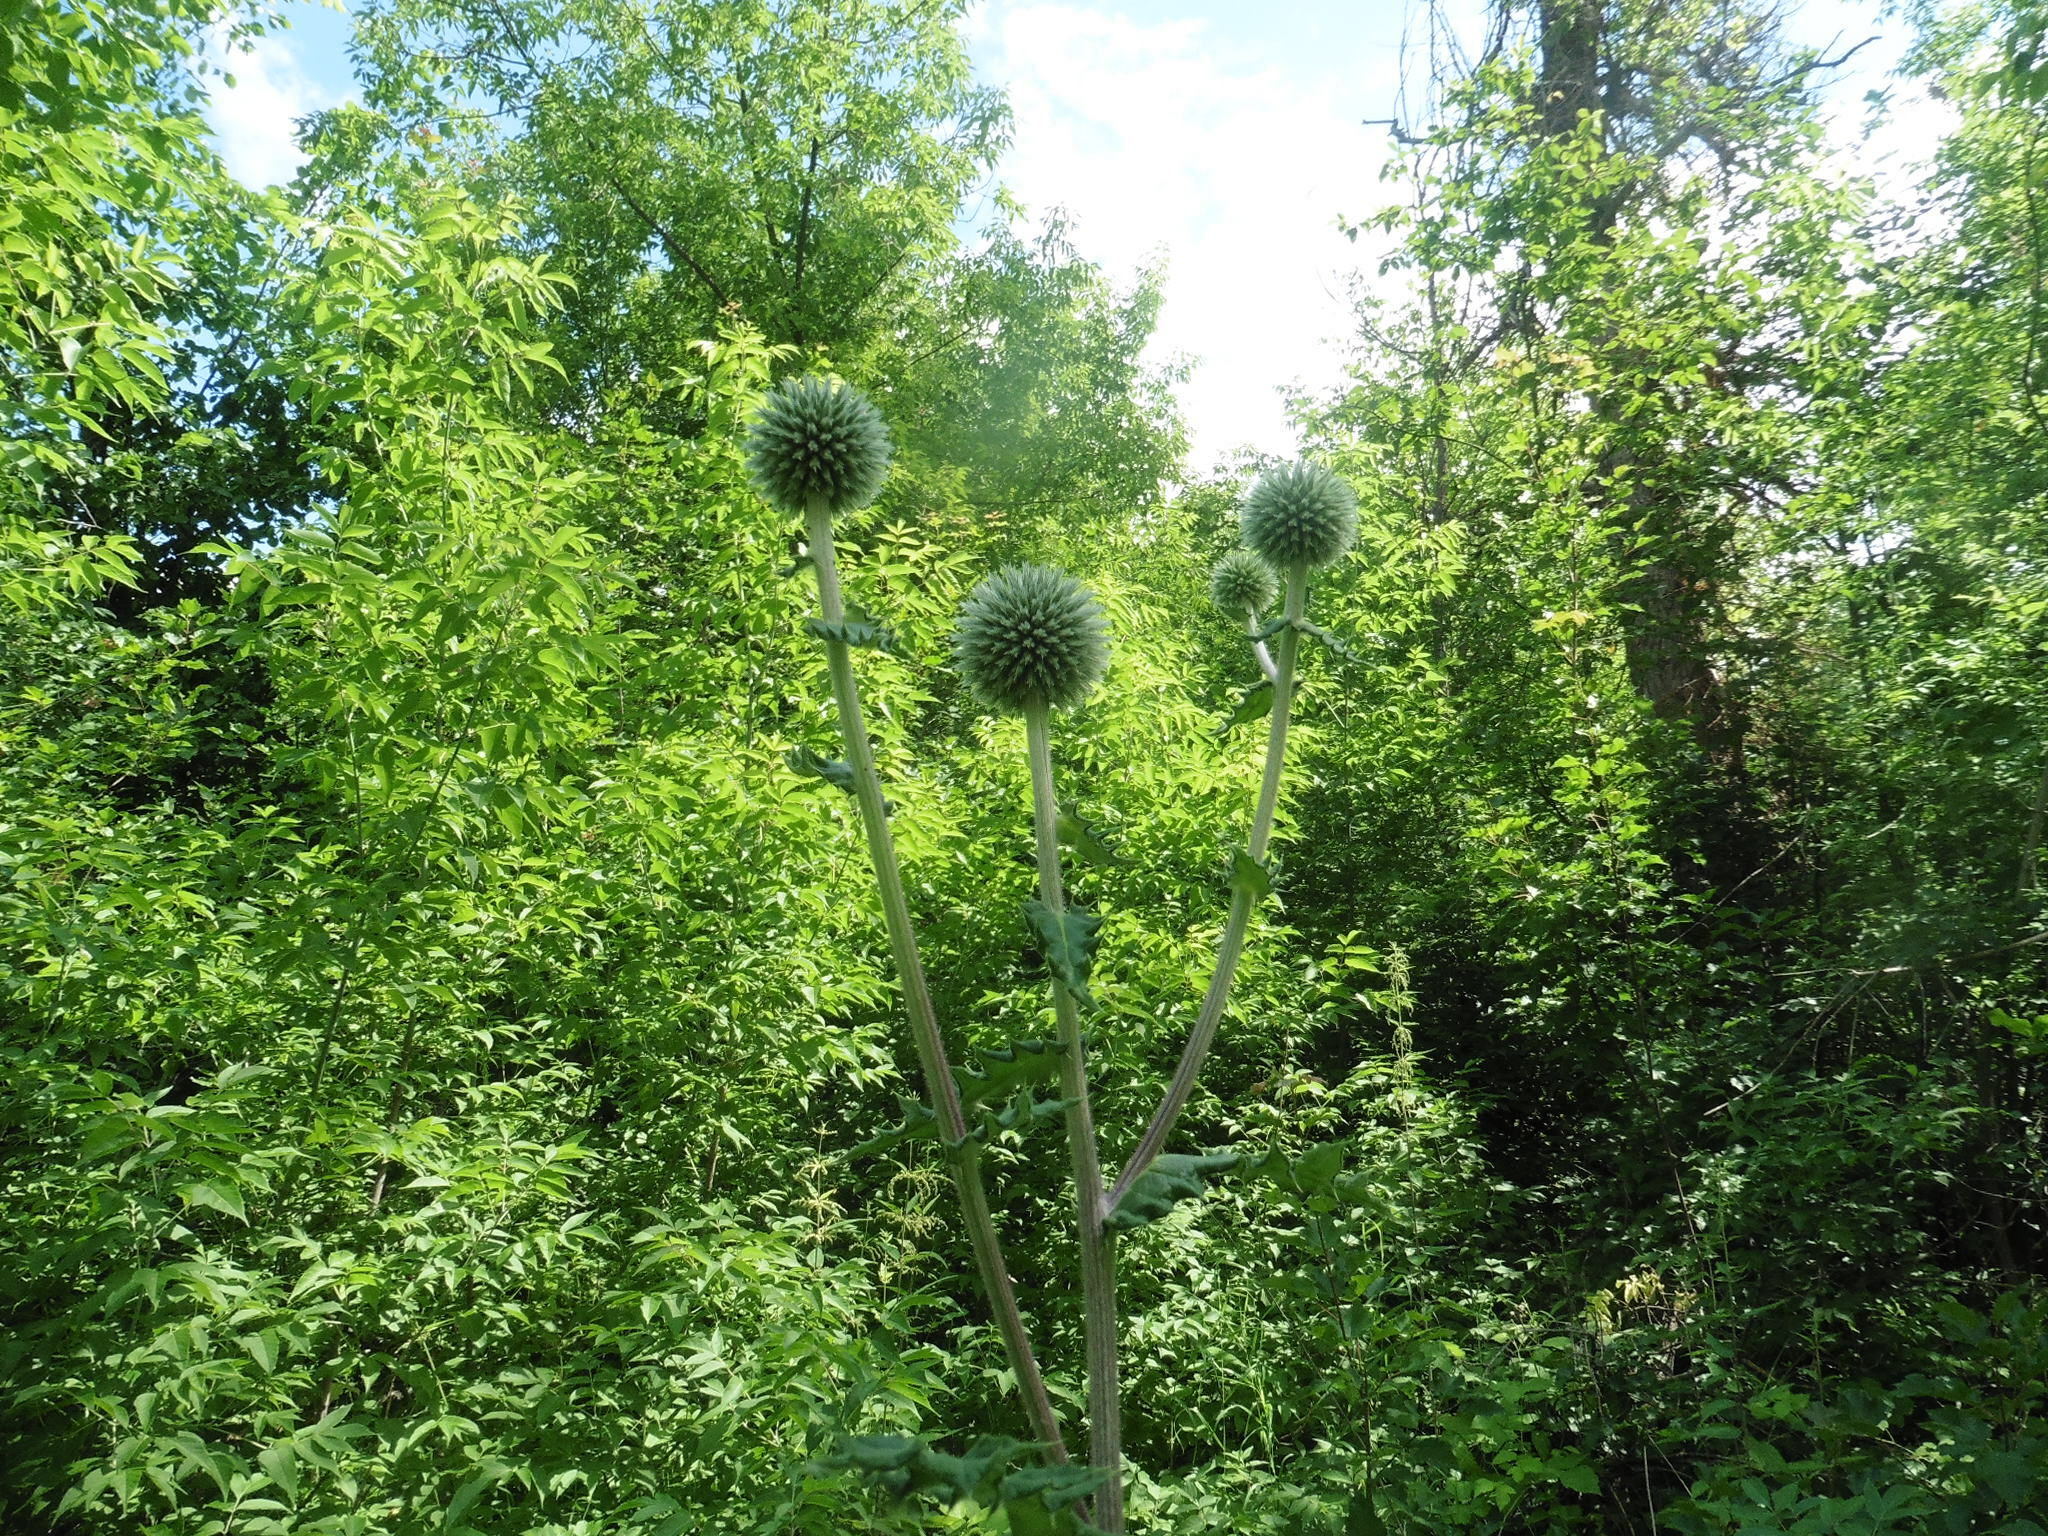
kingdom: Plantae
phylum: Tracheophyta
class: Magnoliopsida
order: Asterales
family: Asteraceae
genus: Echinops
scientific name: Echinops sphaerocephalus
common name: Glandular globe-thistle
